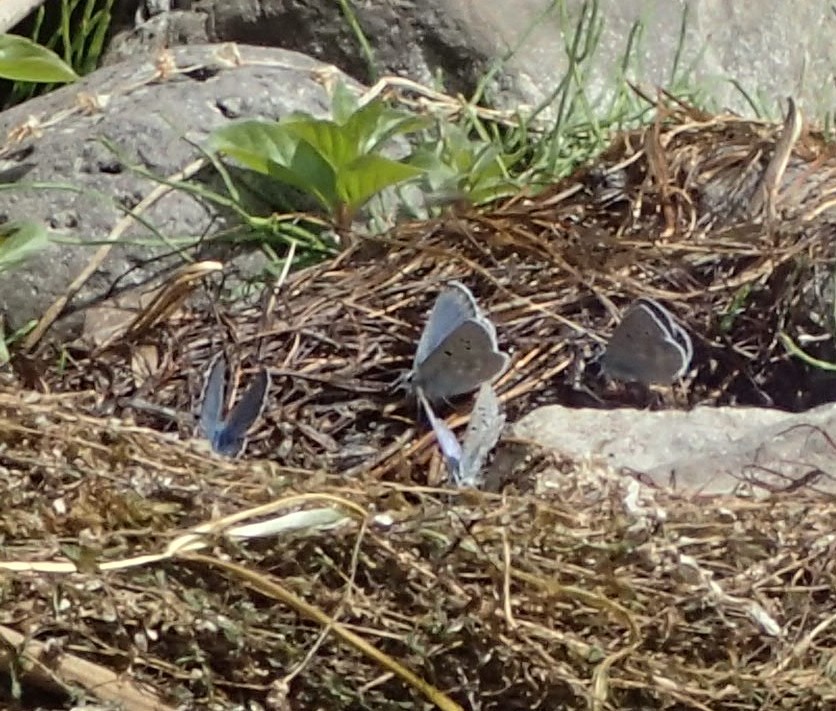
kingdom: Animalia
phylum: Arthropoda
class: Insecta
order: Lepidoptera
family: Lycaenidae
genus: Icaricia
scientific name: Icaricia icarioides
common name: Boisduval's blue
